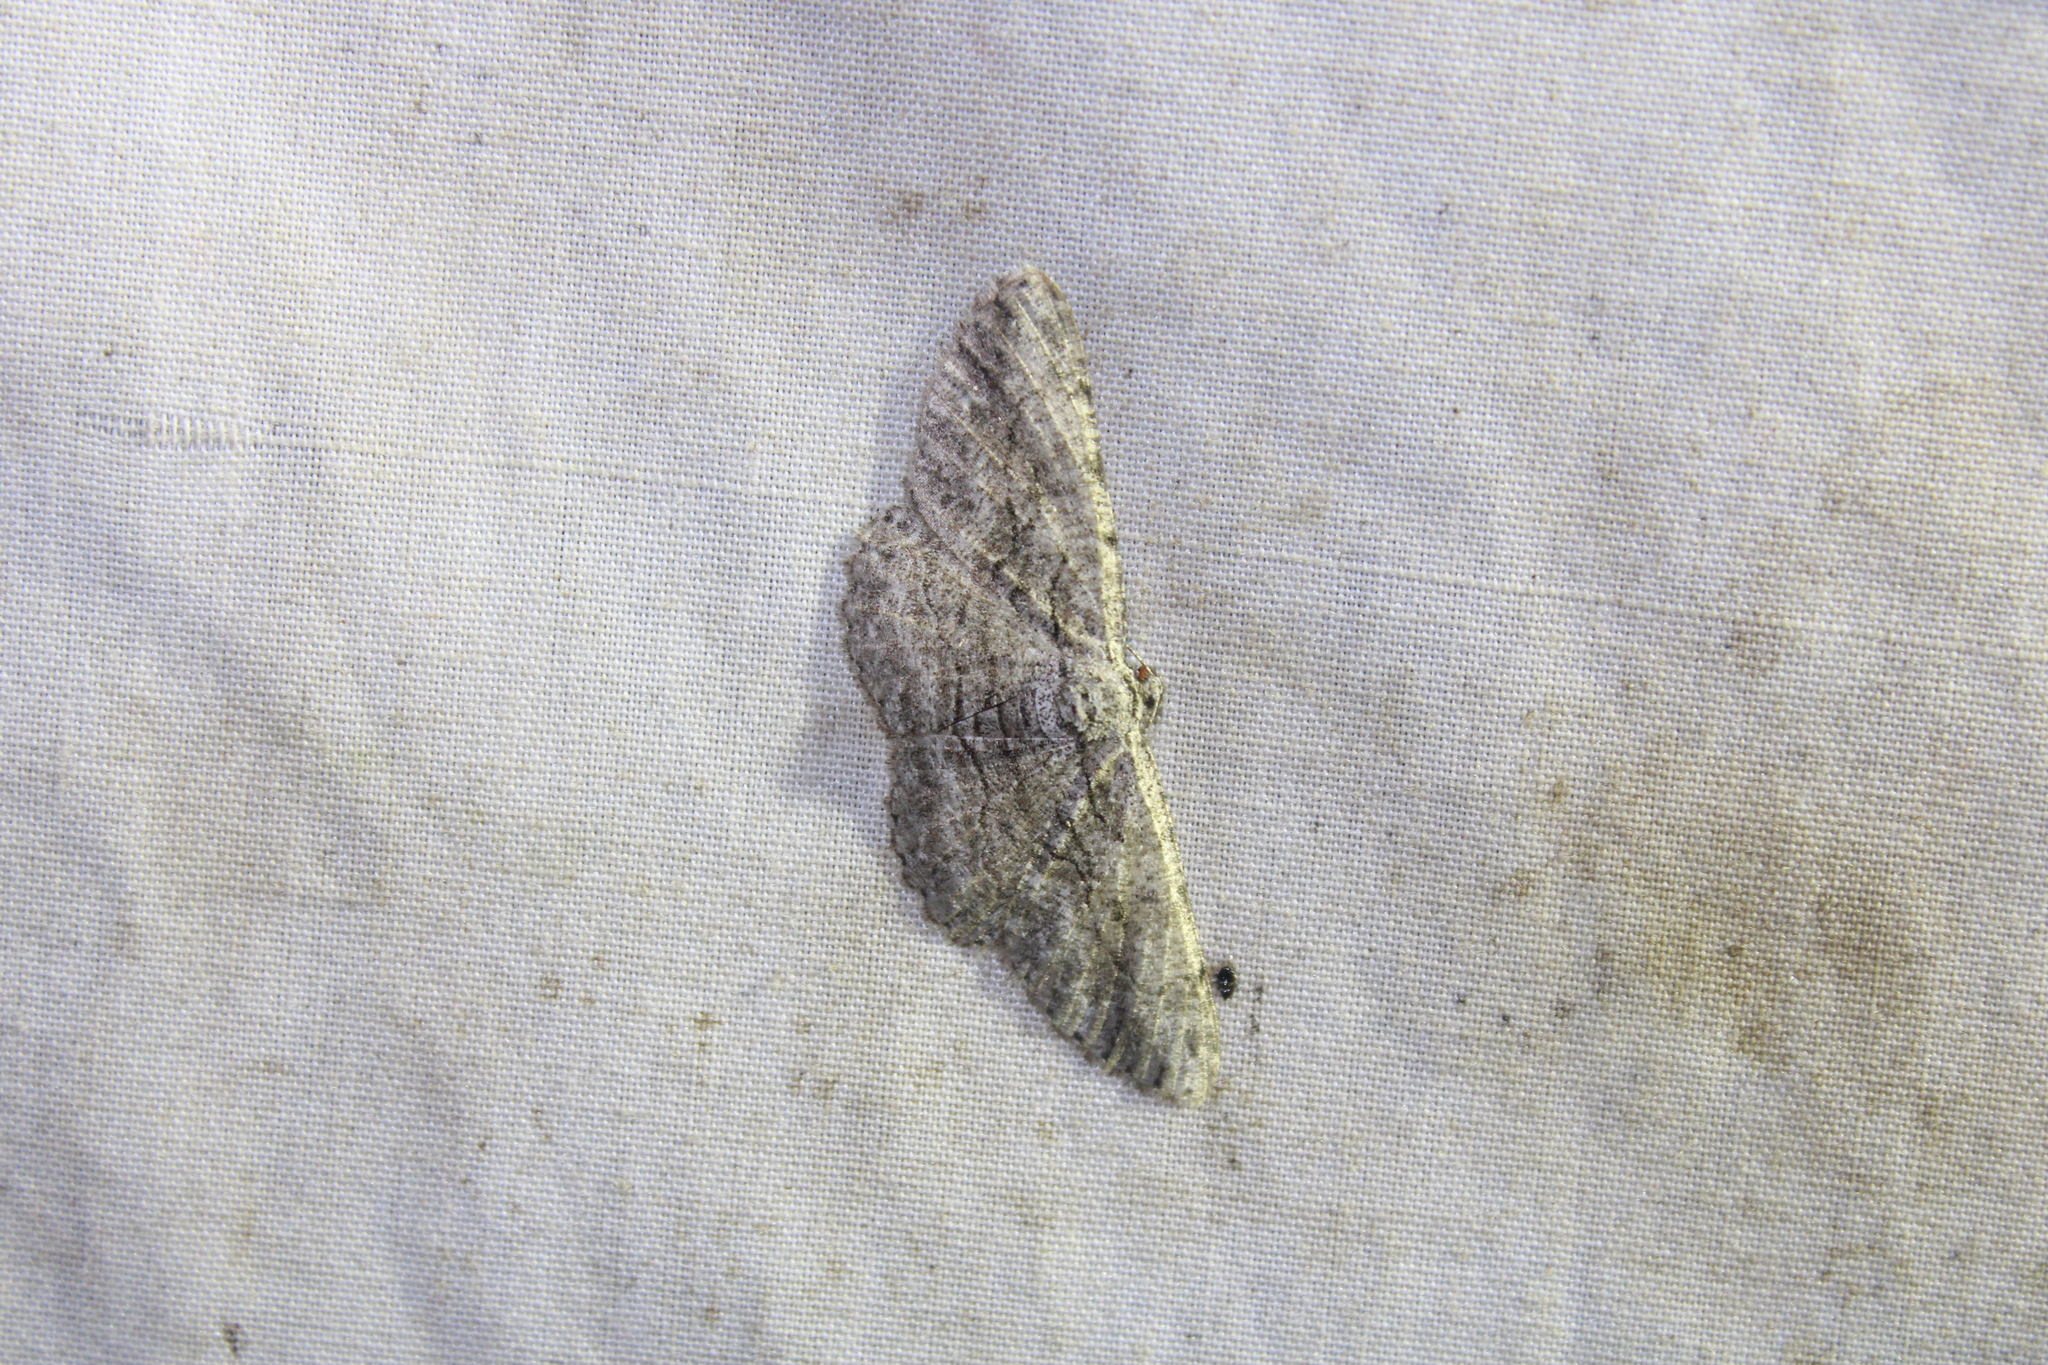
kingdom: Animalia
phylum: Arthropoda
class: Insecta
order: Lepidoptera
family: Geometridae
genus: Anavitrinella
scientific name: Anavitrinella pampinaria
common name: Common gray
